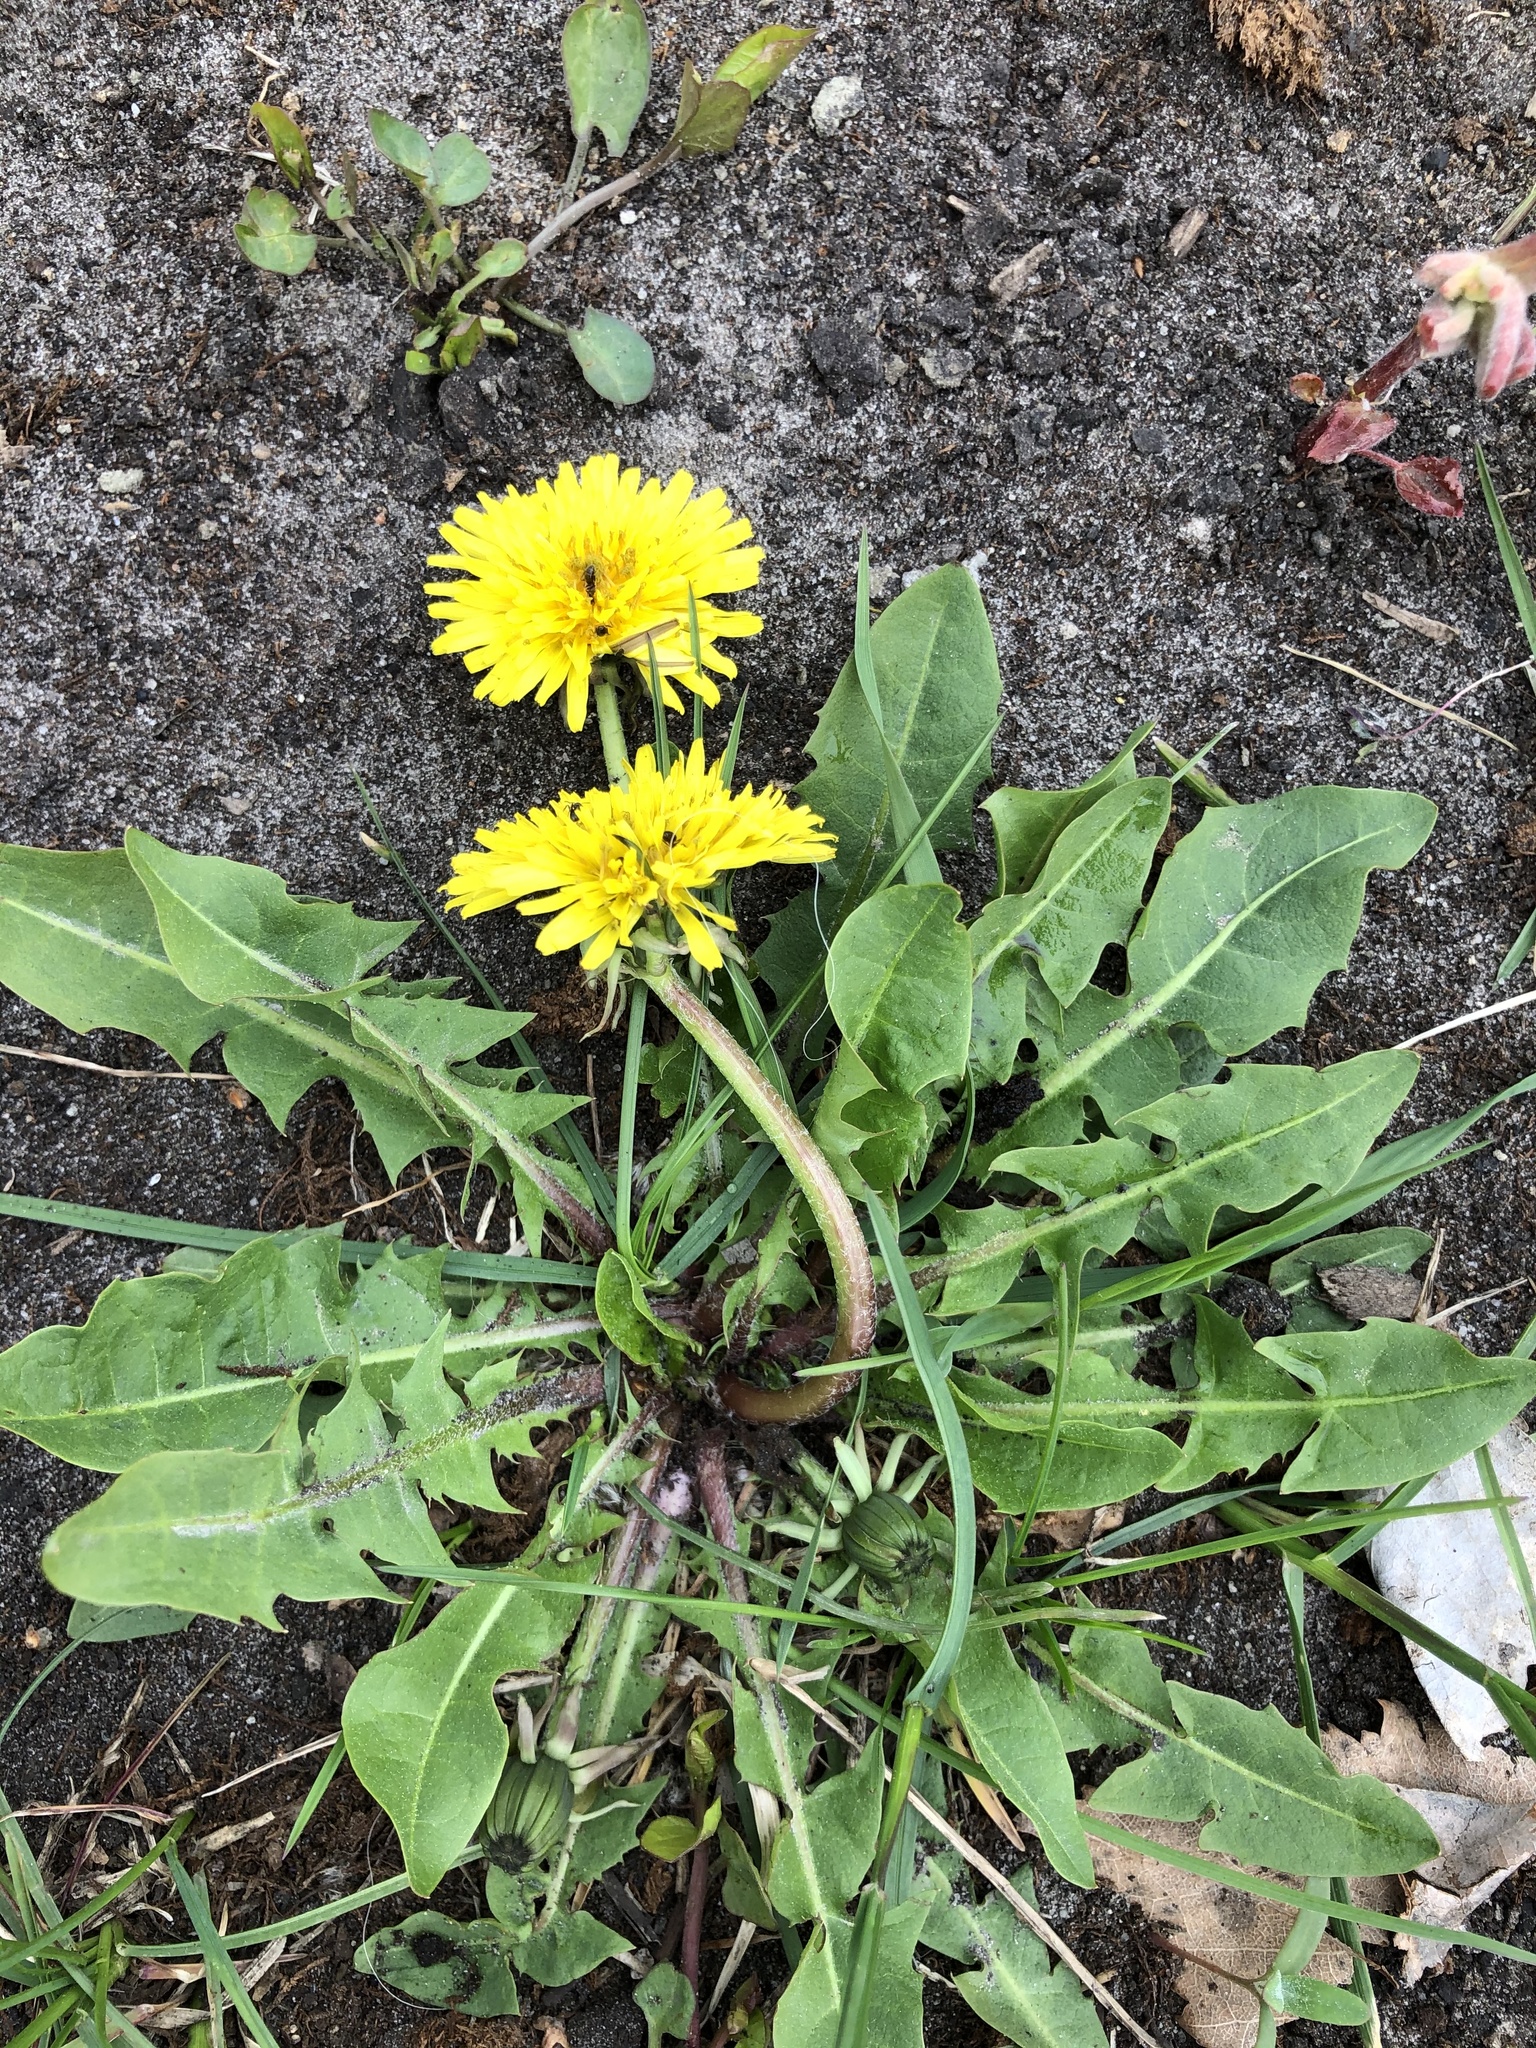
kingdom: Plantae
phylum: Tracheophyta
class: Magnoliopsida
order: Asterales
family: Asteraceae
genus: Taraxacum
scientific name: Taraxacum officinale
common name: Common dandelion
